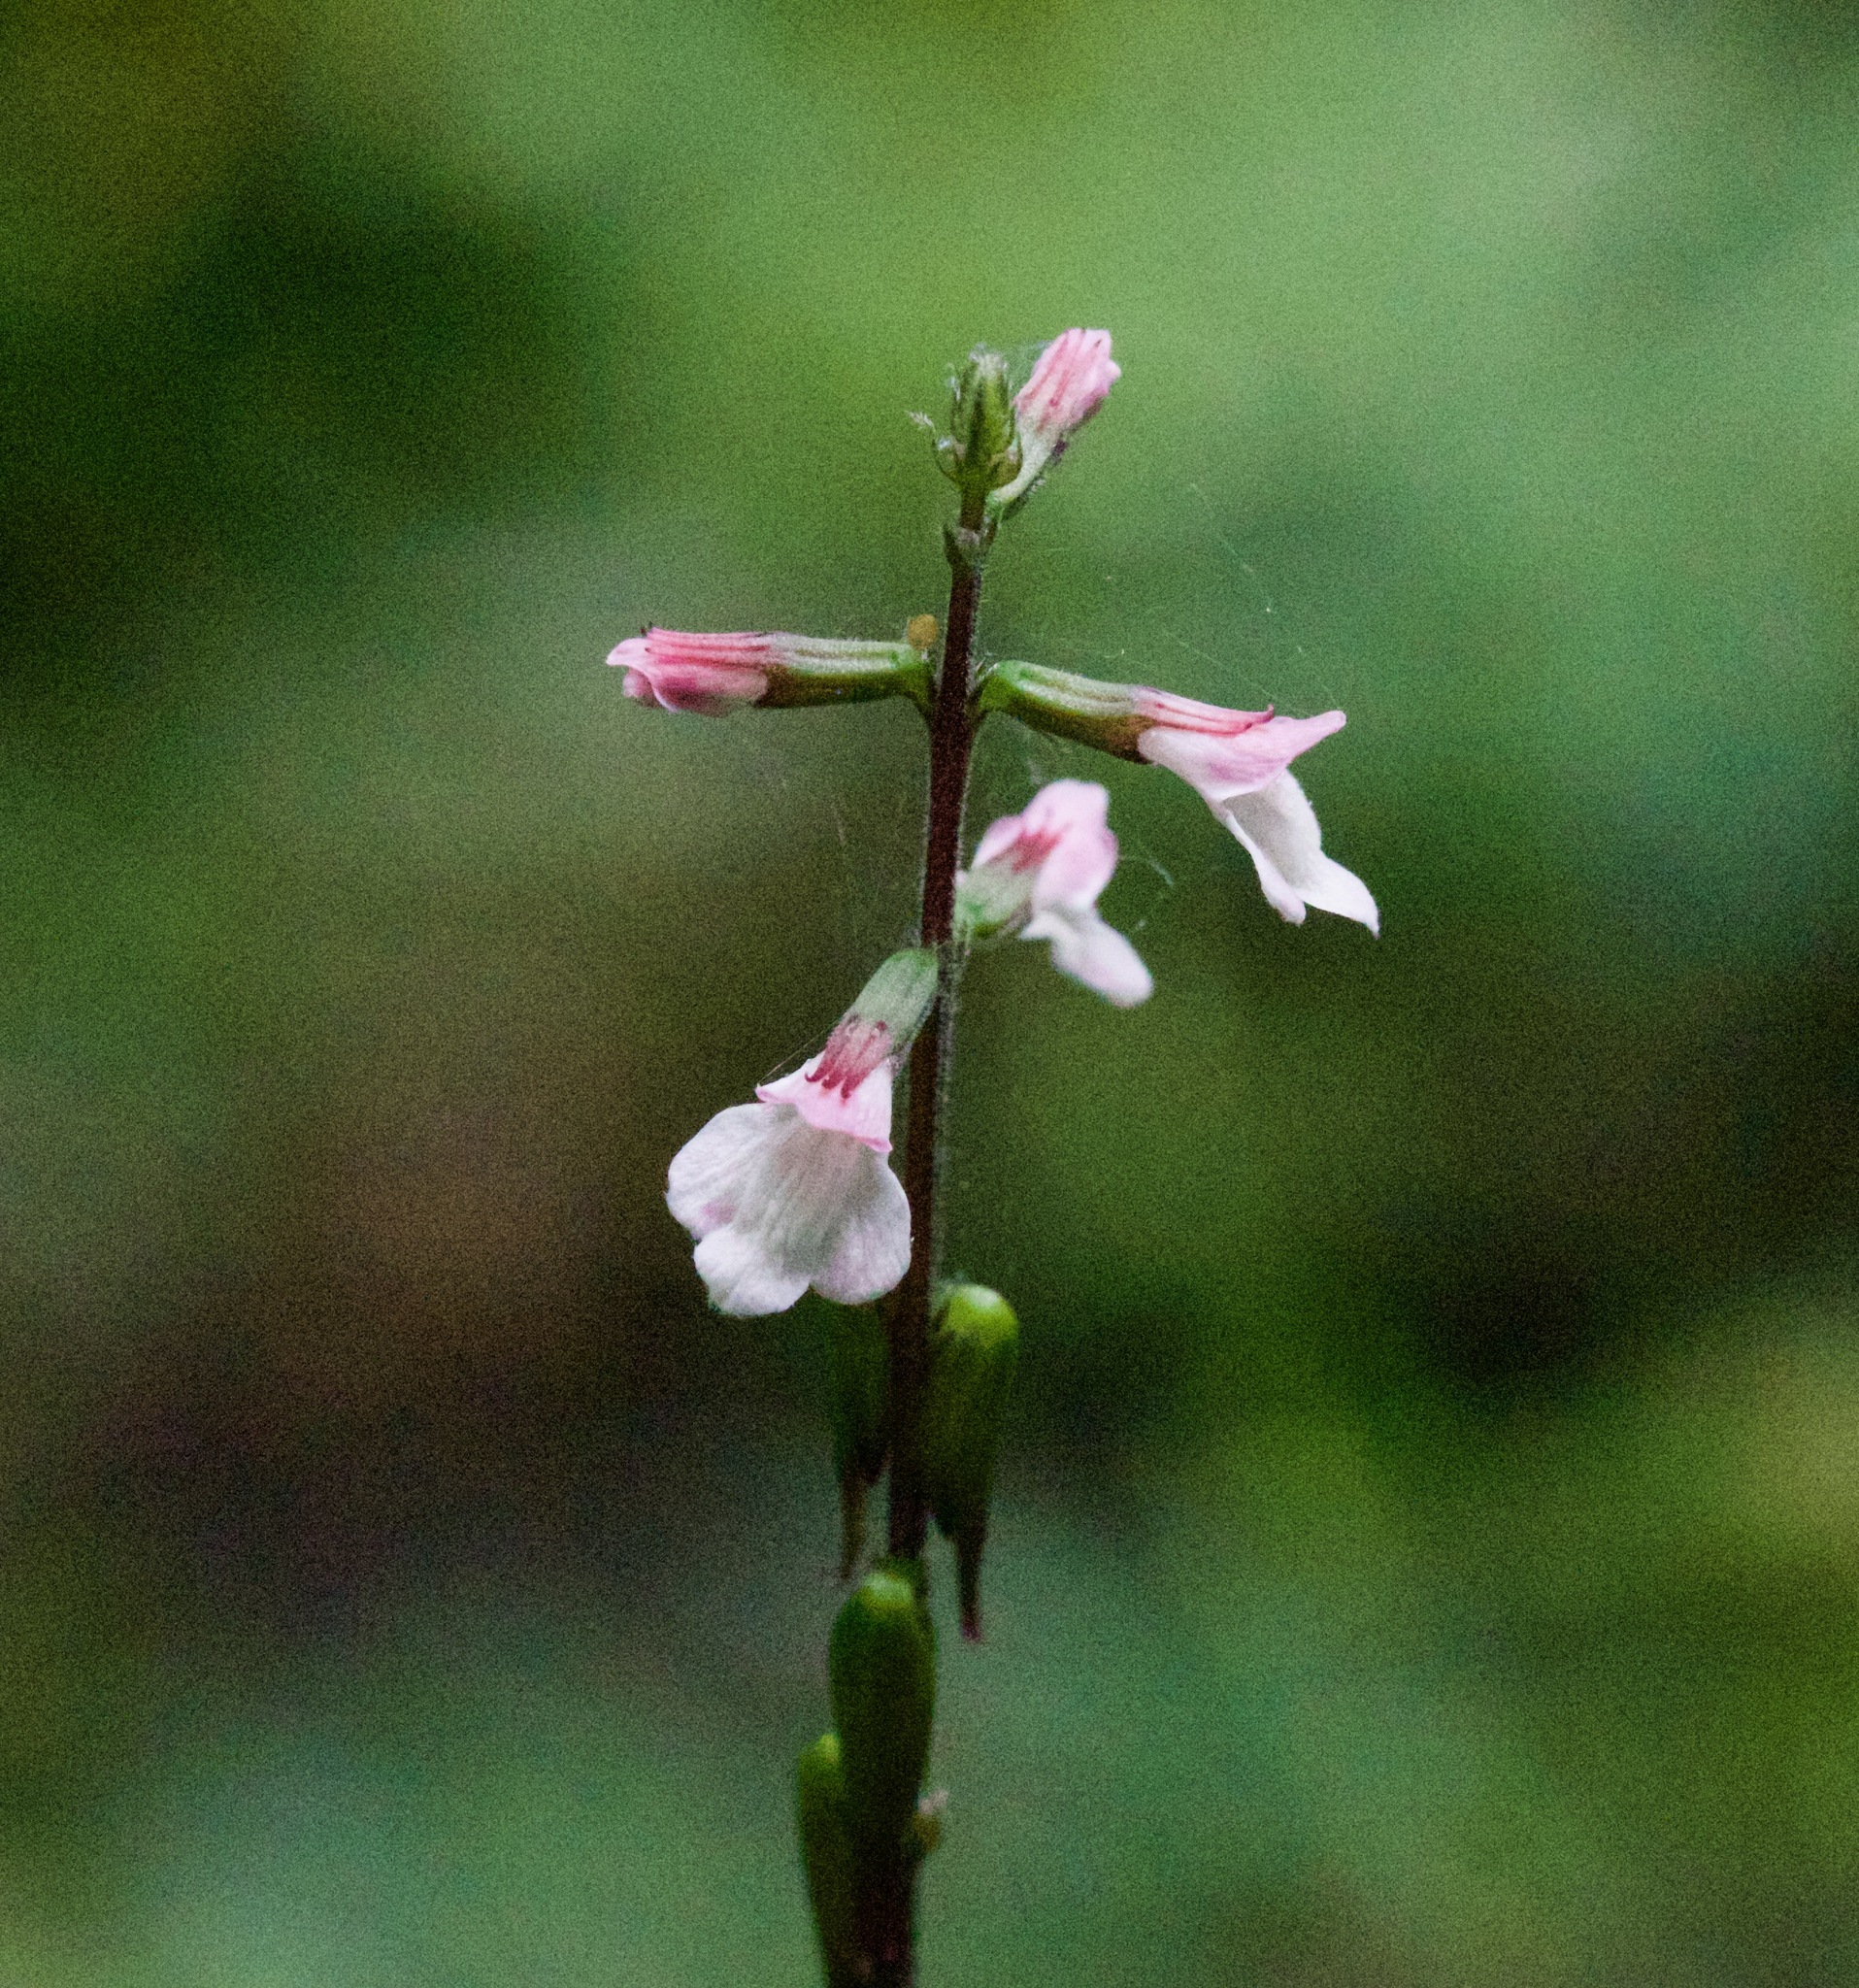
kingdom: Plantae
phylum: Tracheophyta
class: Magnoliopsida
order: Lamiales
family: Phrymaceae
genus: Phryma
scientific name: Phryma leptostachya
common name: American lopseed
